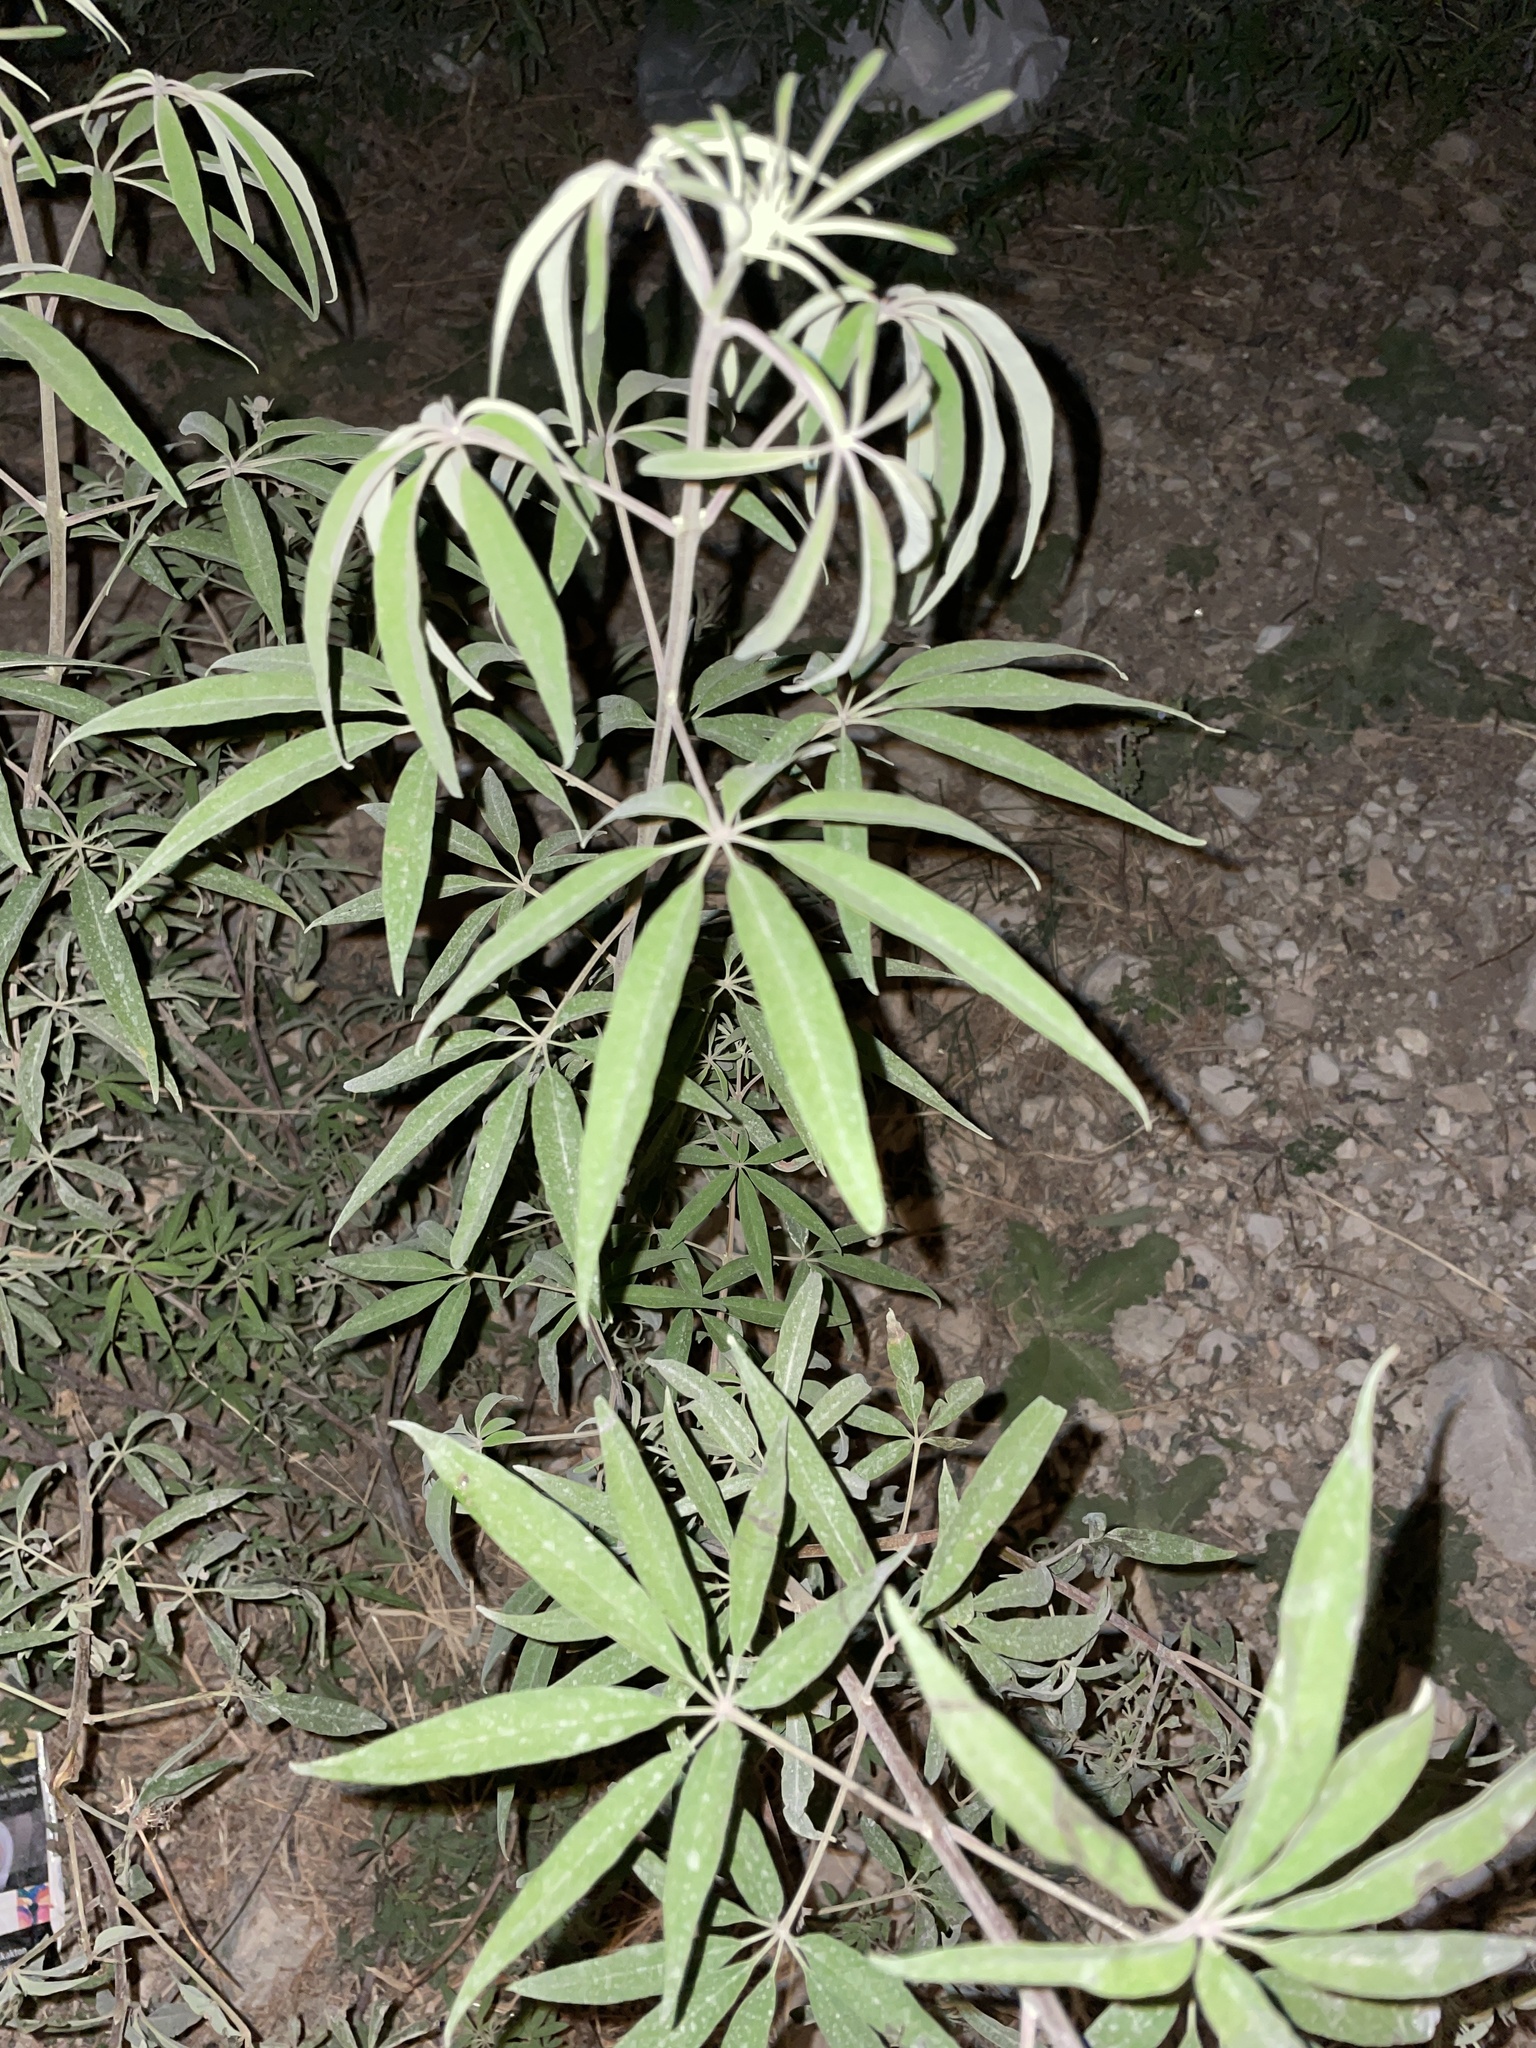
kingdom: Plantae
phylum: Tracheophyta
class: Magnoliopsida
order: Lamiales
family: Lamiaceae
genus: Vitex
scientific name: Vitex agnus-castus
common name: Chasteberry
